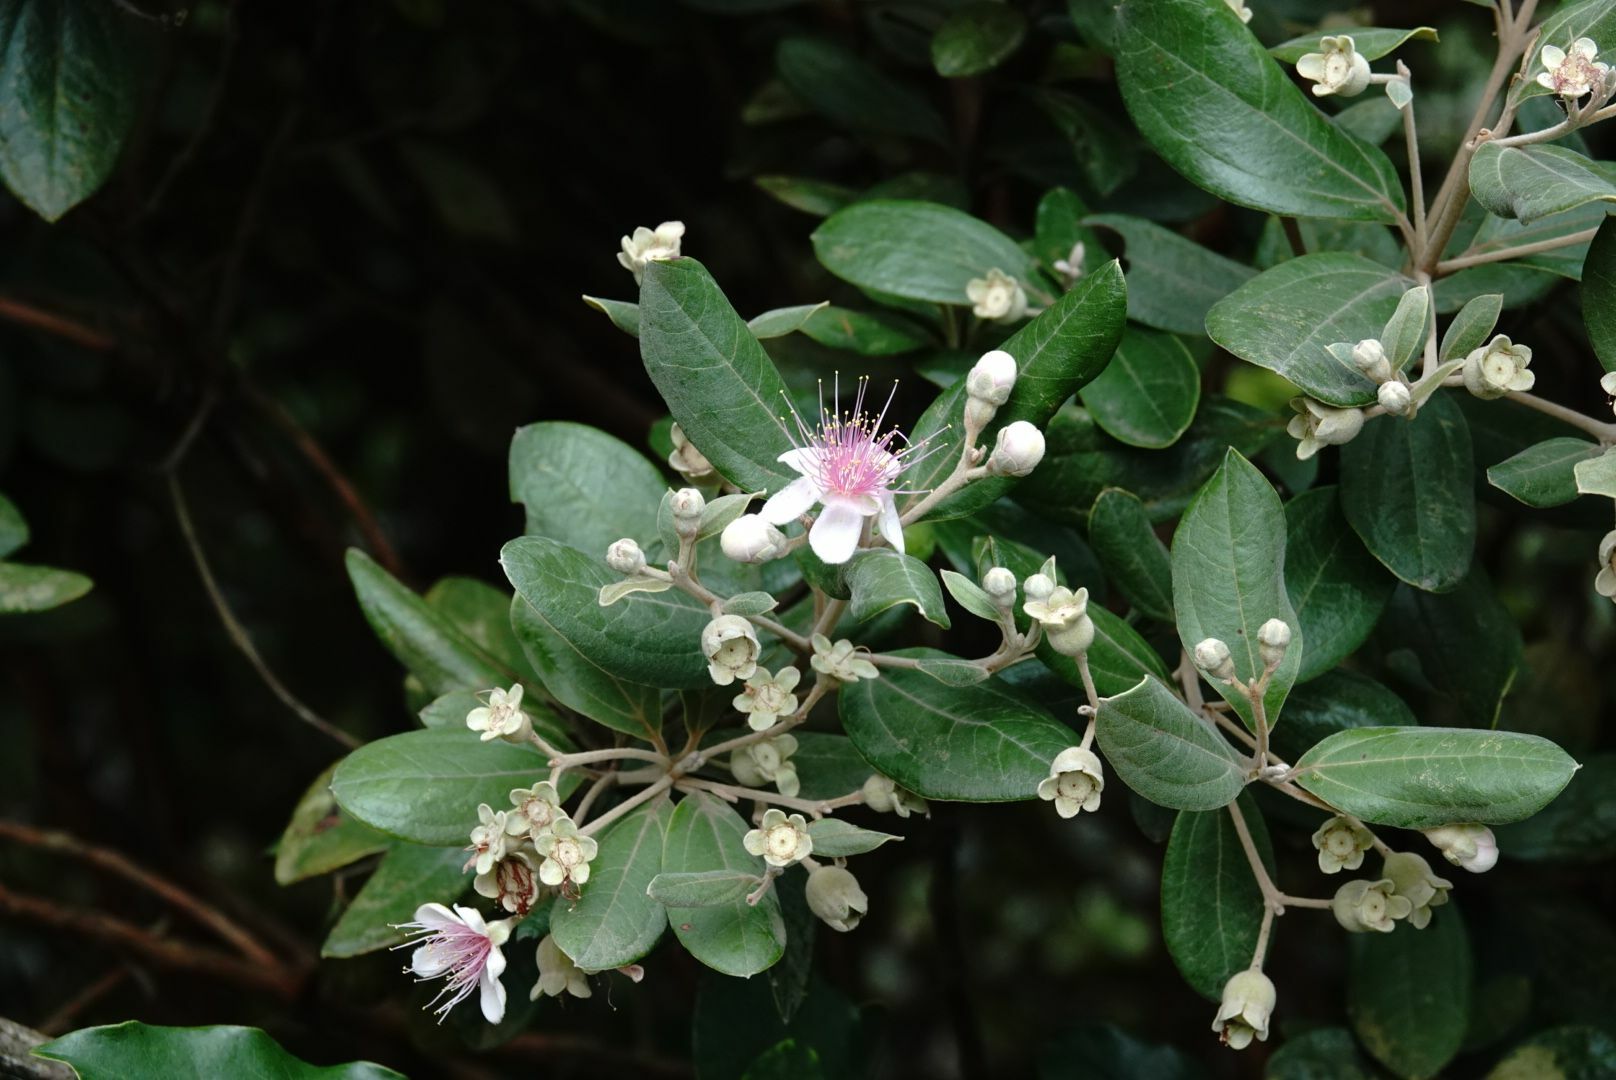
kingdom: Plantae
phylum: Tracheophyta
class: Magnoliopsida
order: Myrtales
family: Myrtaceae
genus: Rhodomyrtus
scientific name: Rhodomyrtus tomentosa
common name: Rose myrtle
